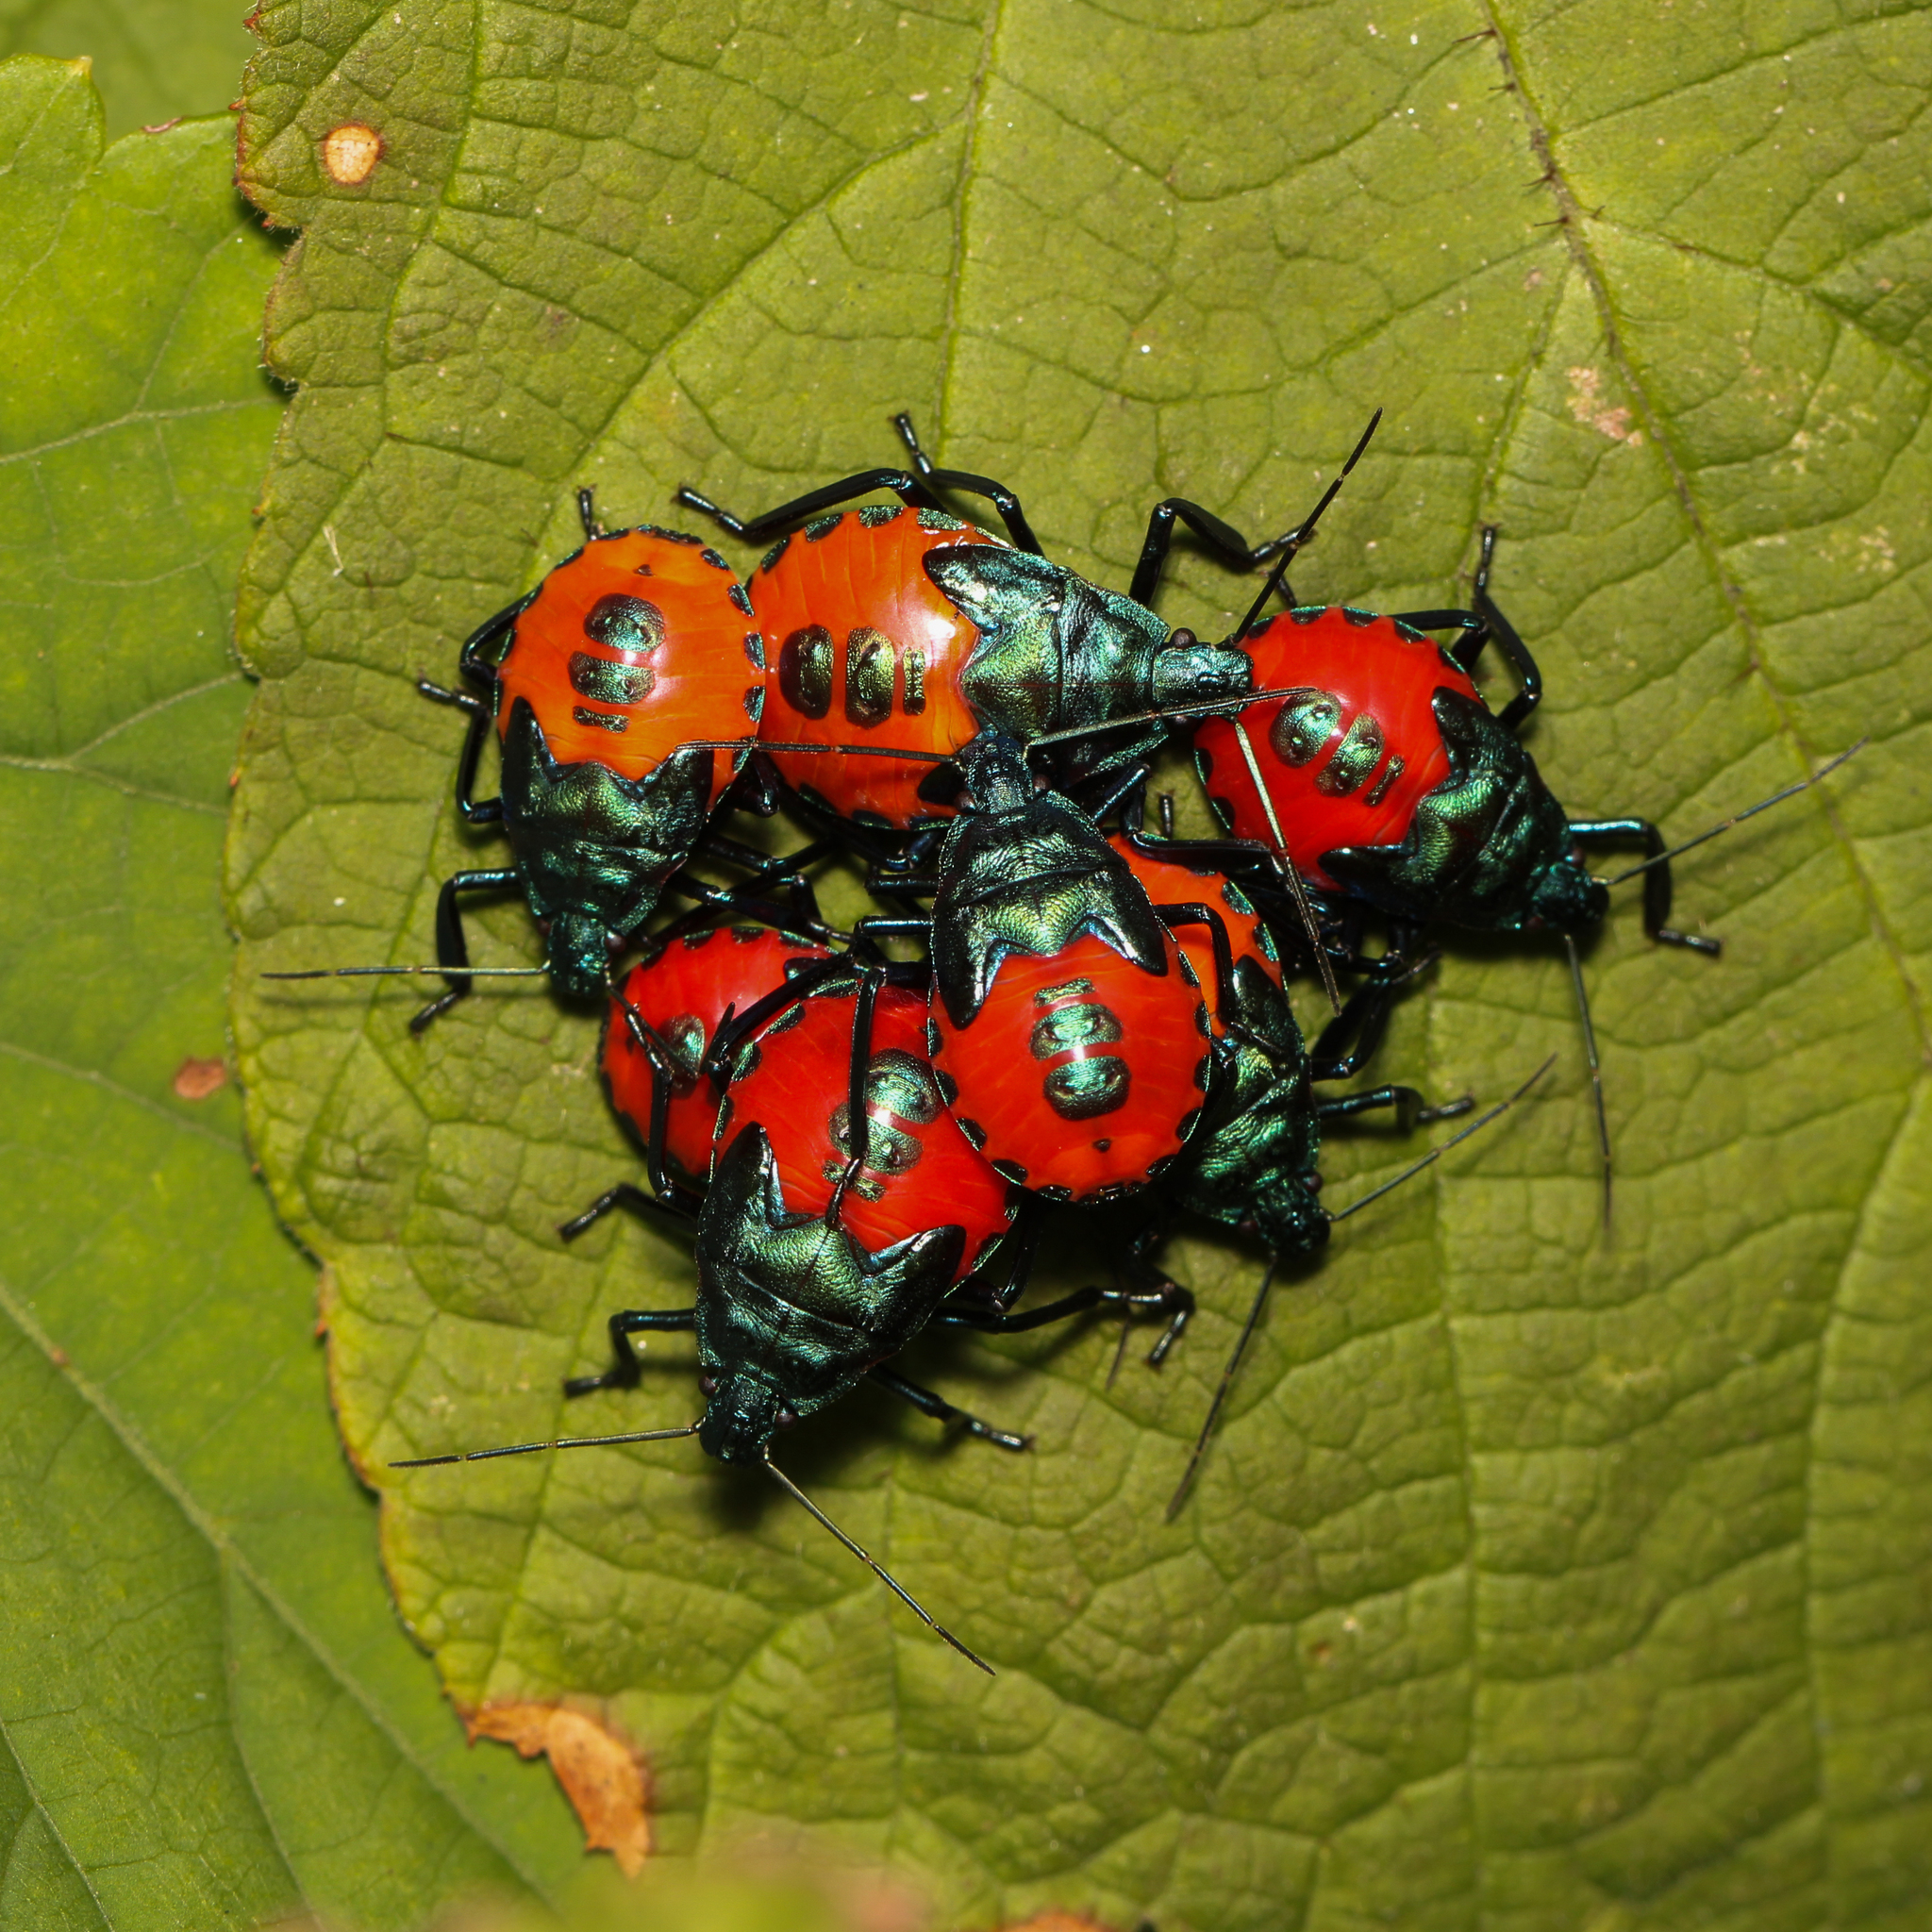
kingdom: Animalia
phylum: Arthropoda
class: Insecta
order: Hemiptera
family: Pentatomidae
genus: Euthyrhynchus
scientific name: Euthyrhynchus floridanus
